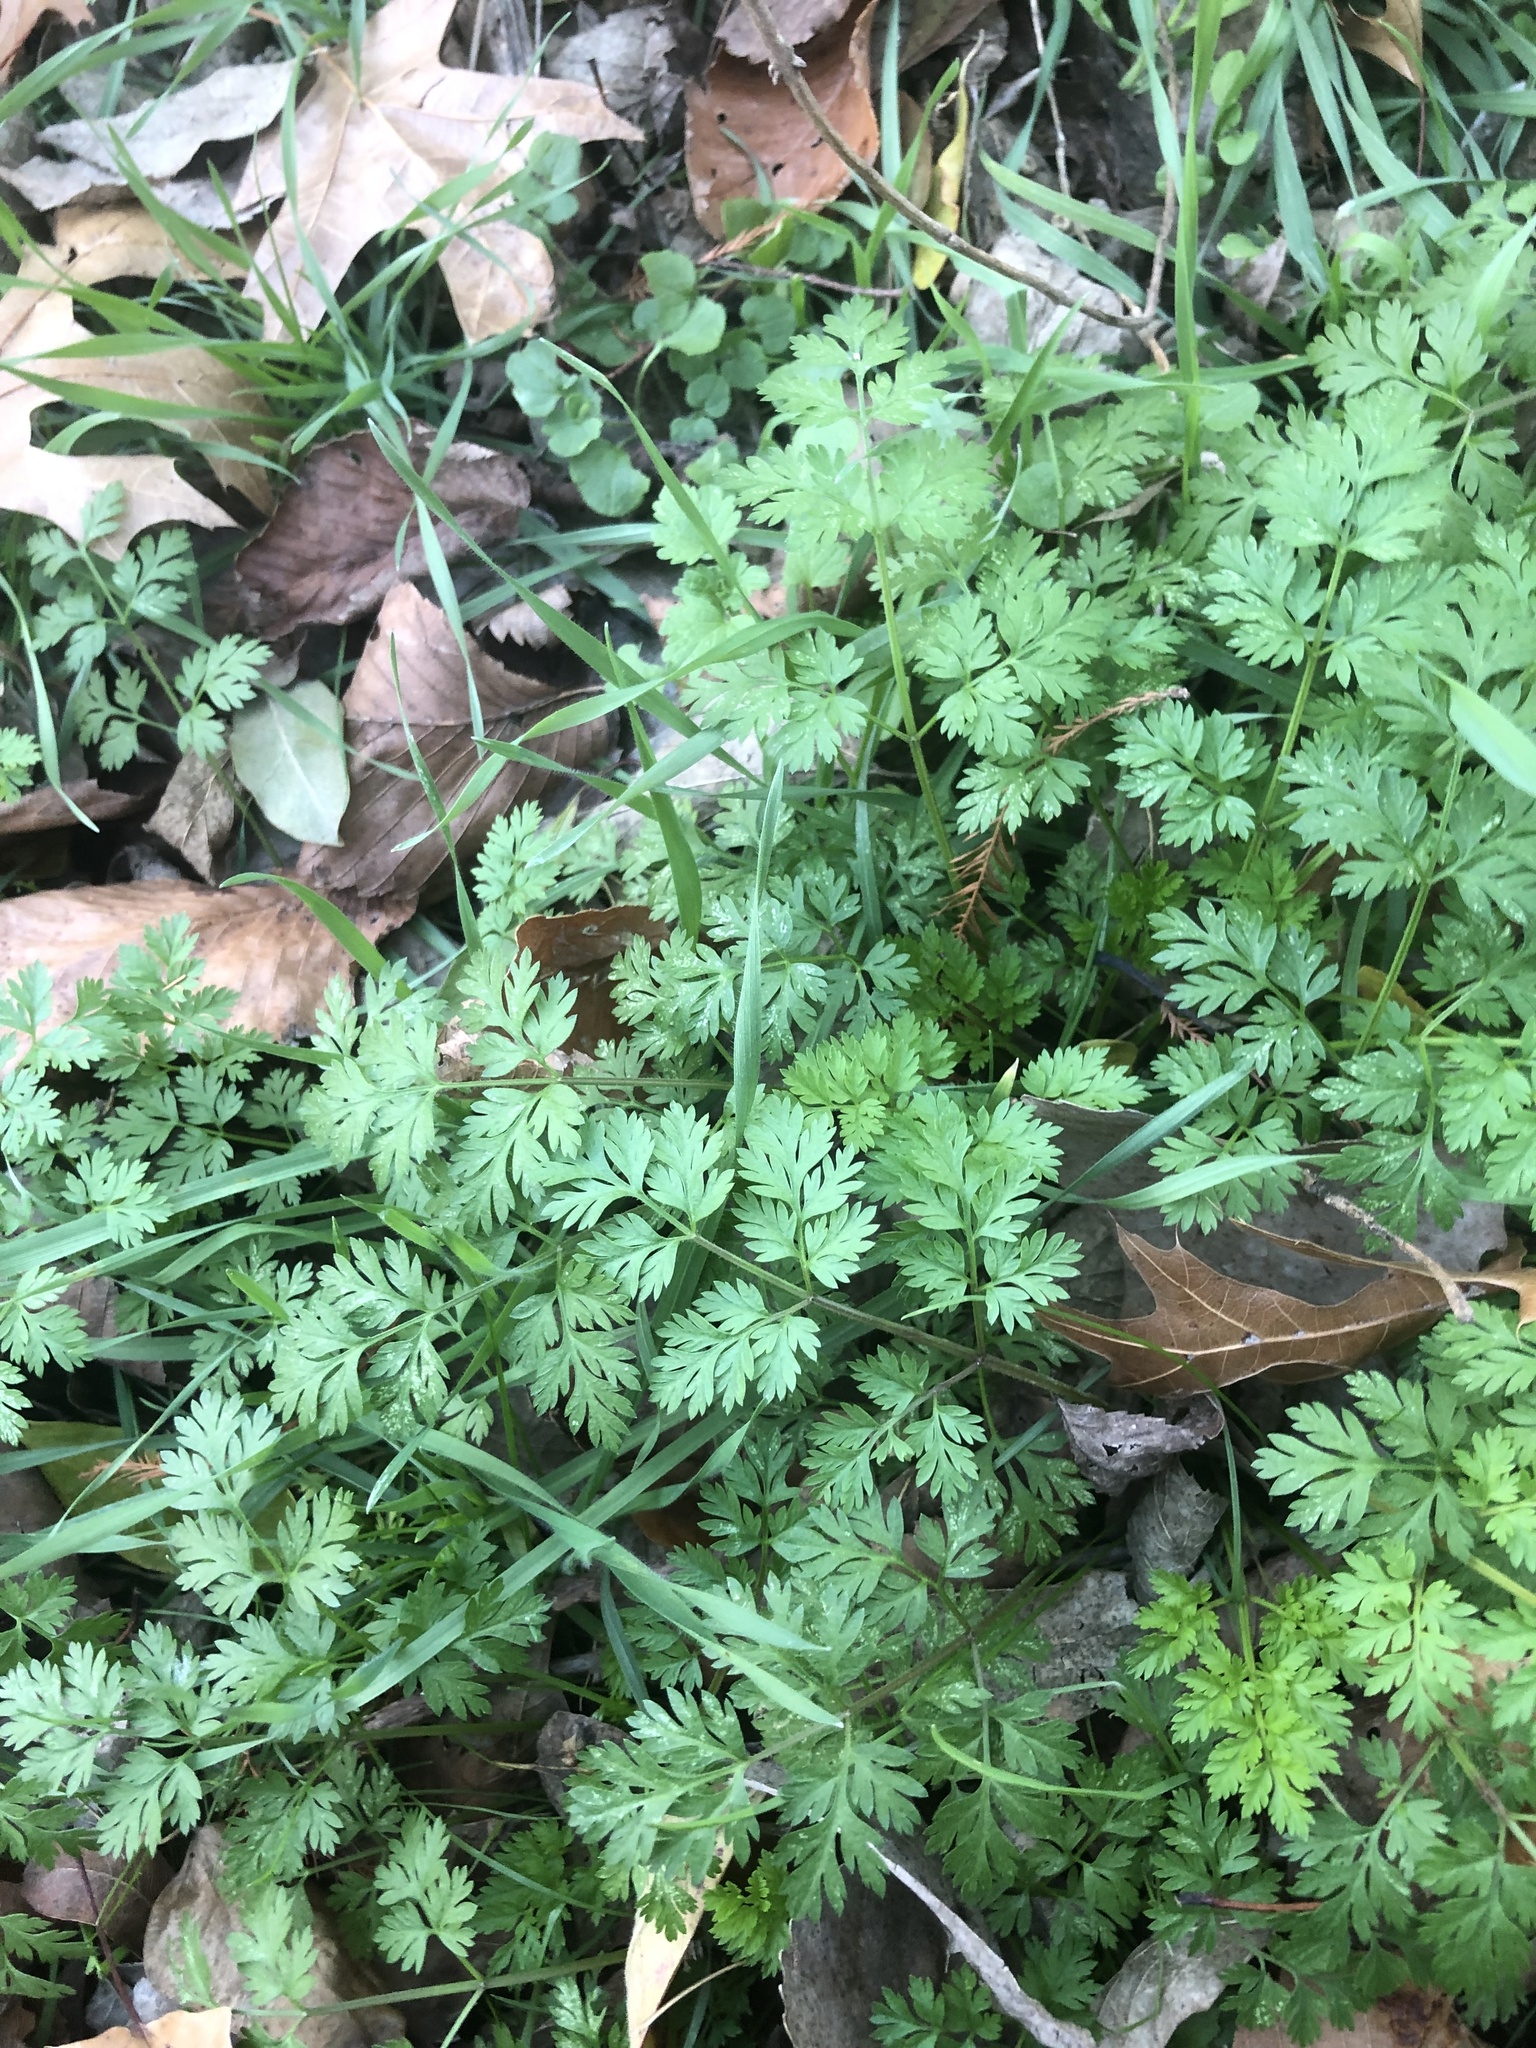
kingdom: Plantae
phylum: Tracheophyta
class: Magnoliopsida
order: Apiales
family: Apiaceae
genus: Chaerophyllum
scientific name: Chaerophyllum tainturieri
